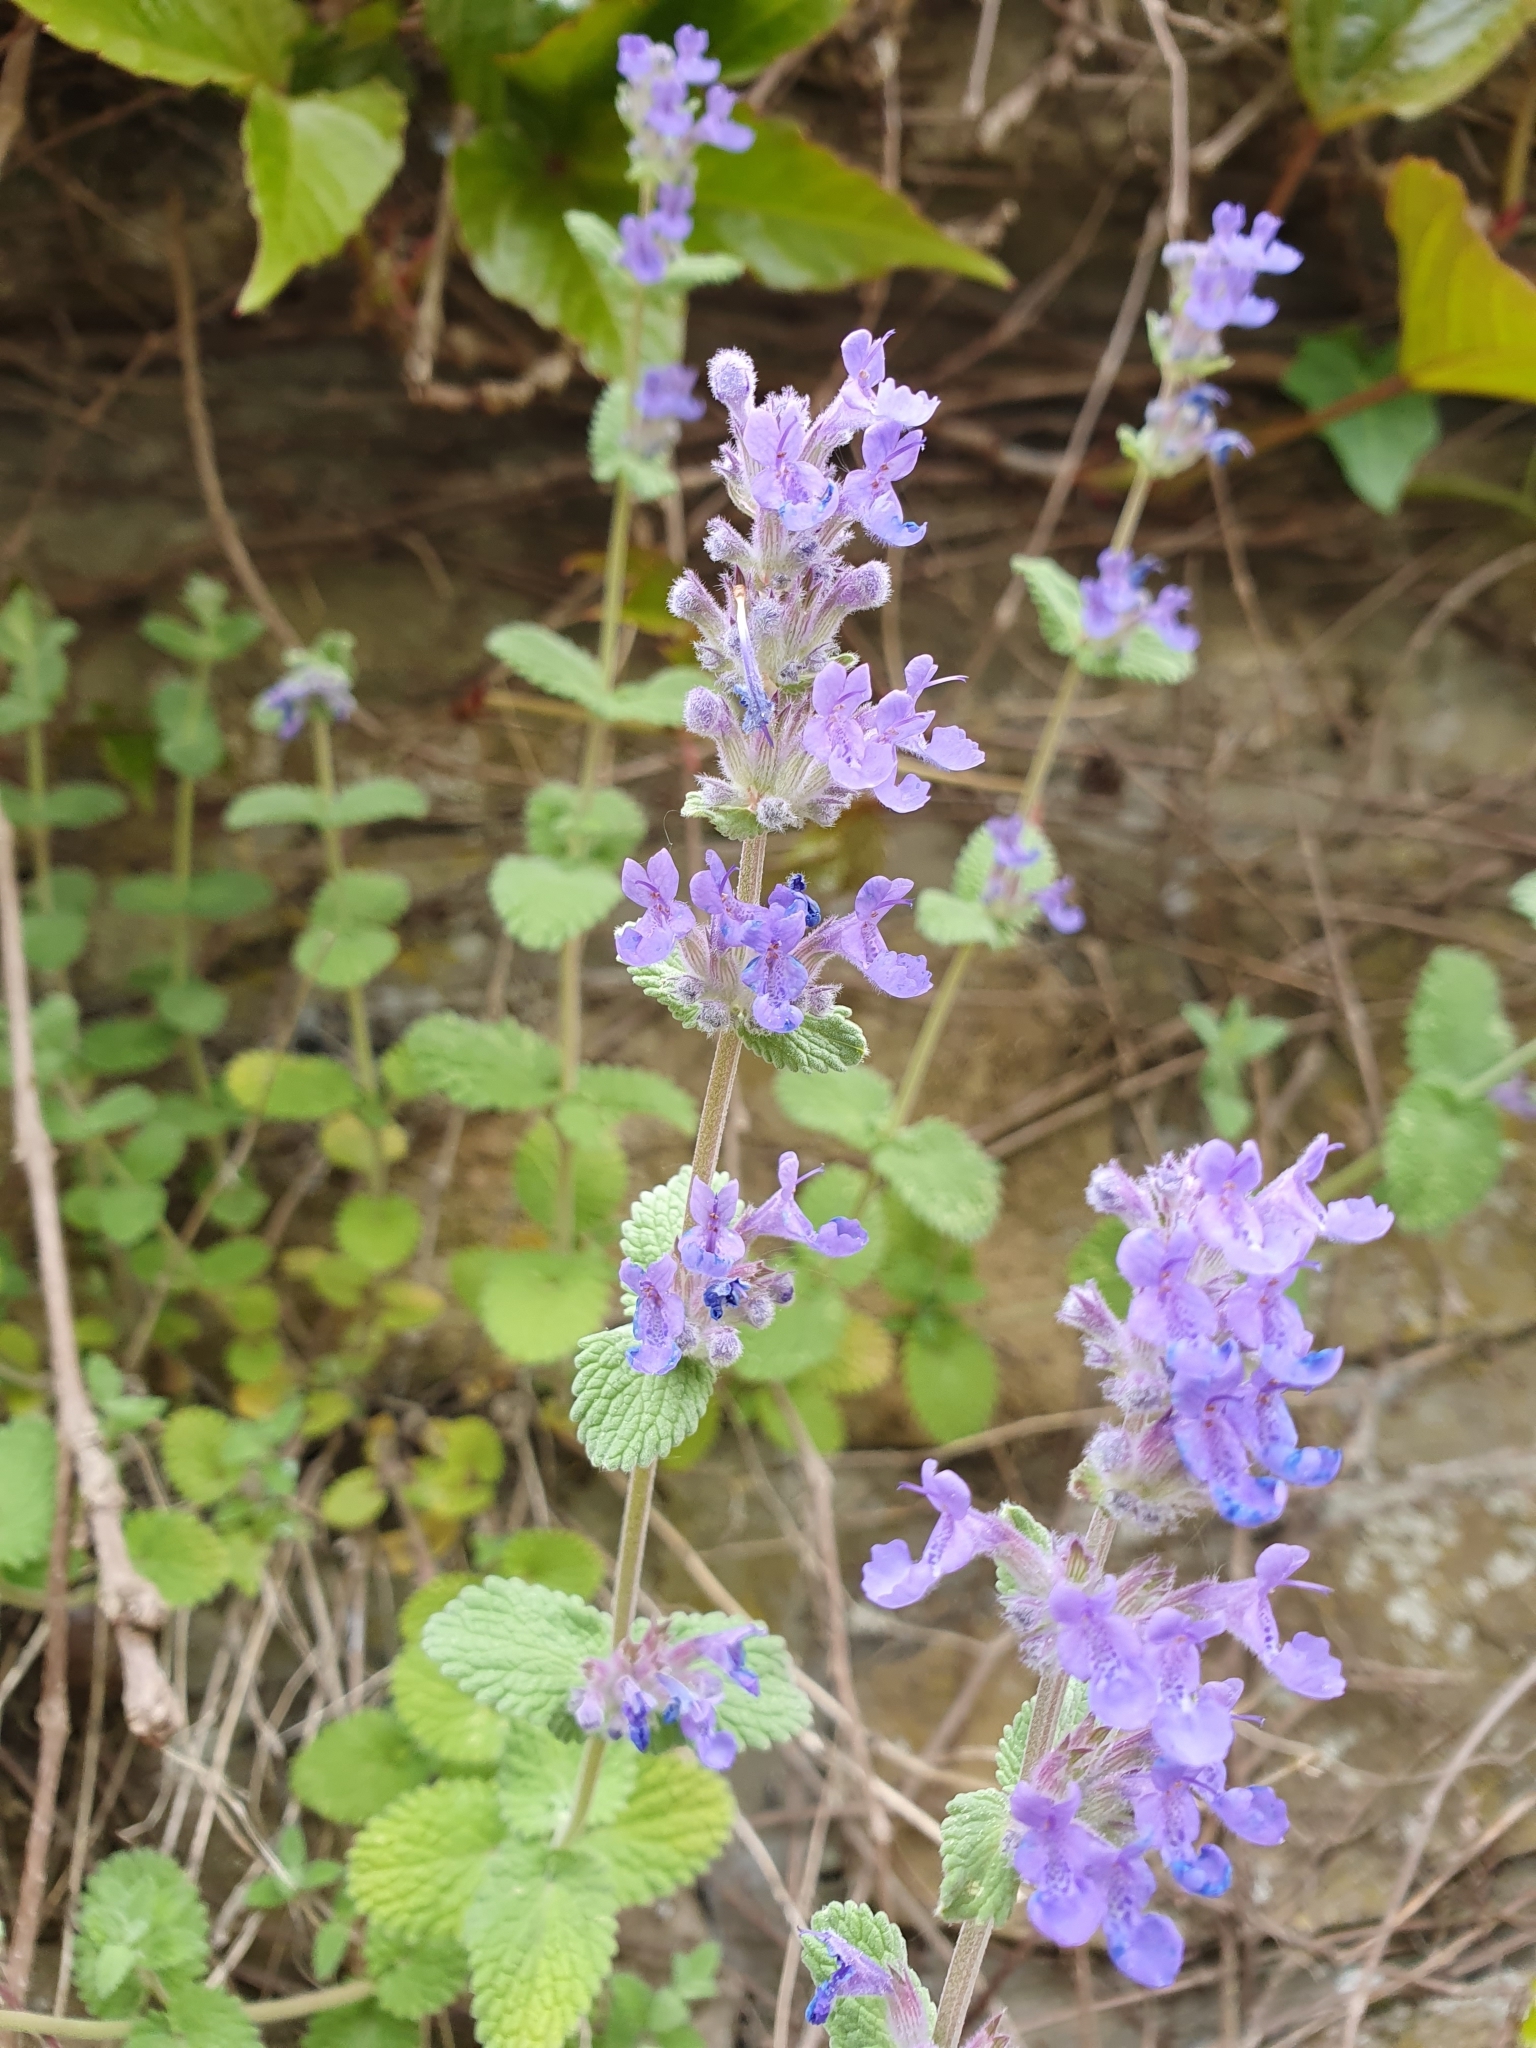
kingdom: Plantae
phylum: Tracheophyta
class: Magnoliopsida
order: Lamiales
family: Lamiaceae
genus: Nepeta
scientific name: Nepeta racemosa
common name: Raceme catnip
